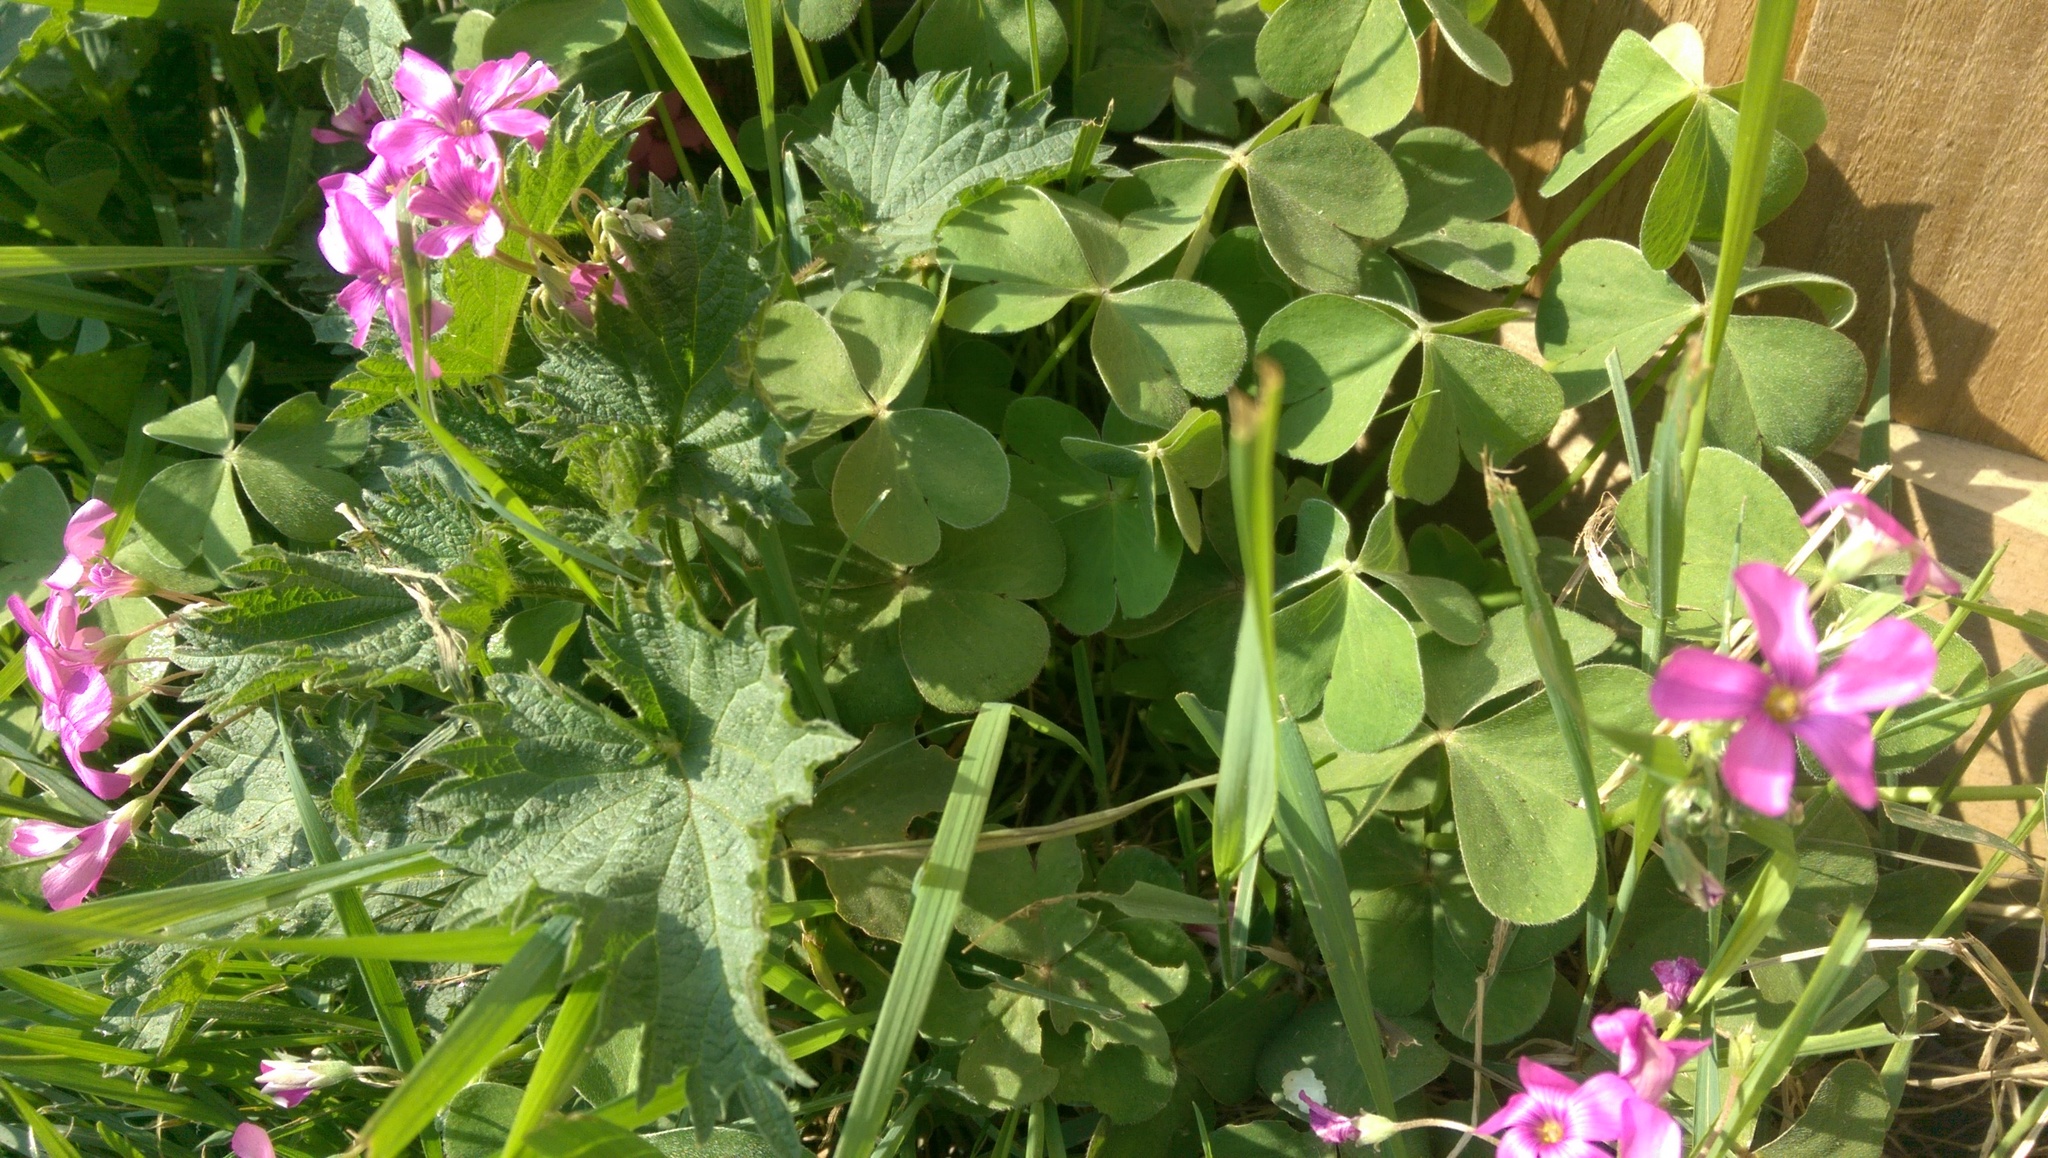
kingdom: Plantae
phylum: Tracheophyta
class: Magnoliopsida
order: Oxalidales
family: Oxalidaceae
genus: Oxalis
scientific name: Oxalis articulata
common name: Pink-sorrel
